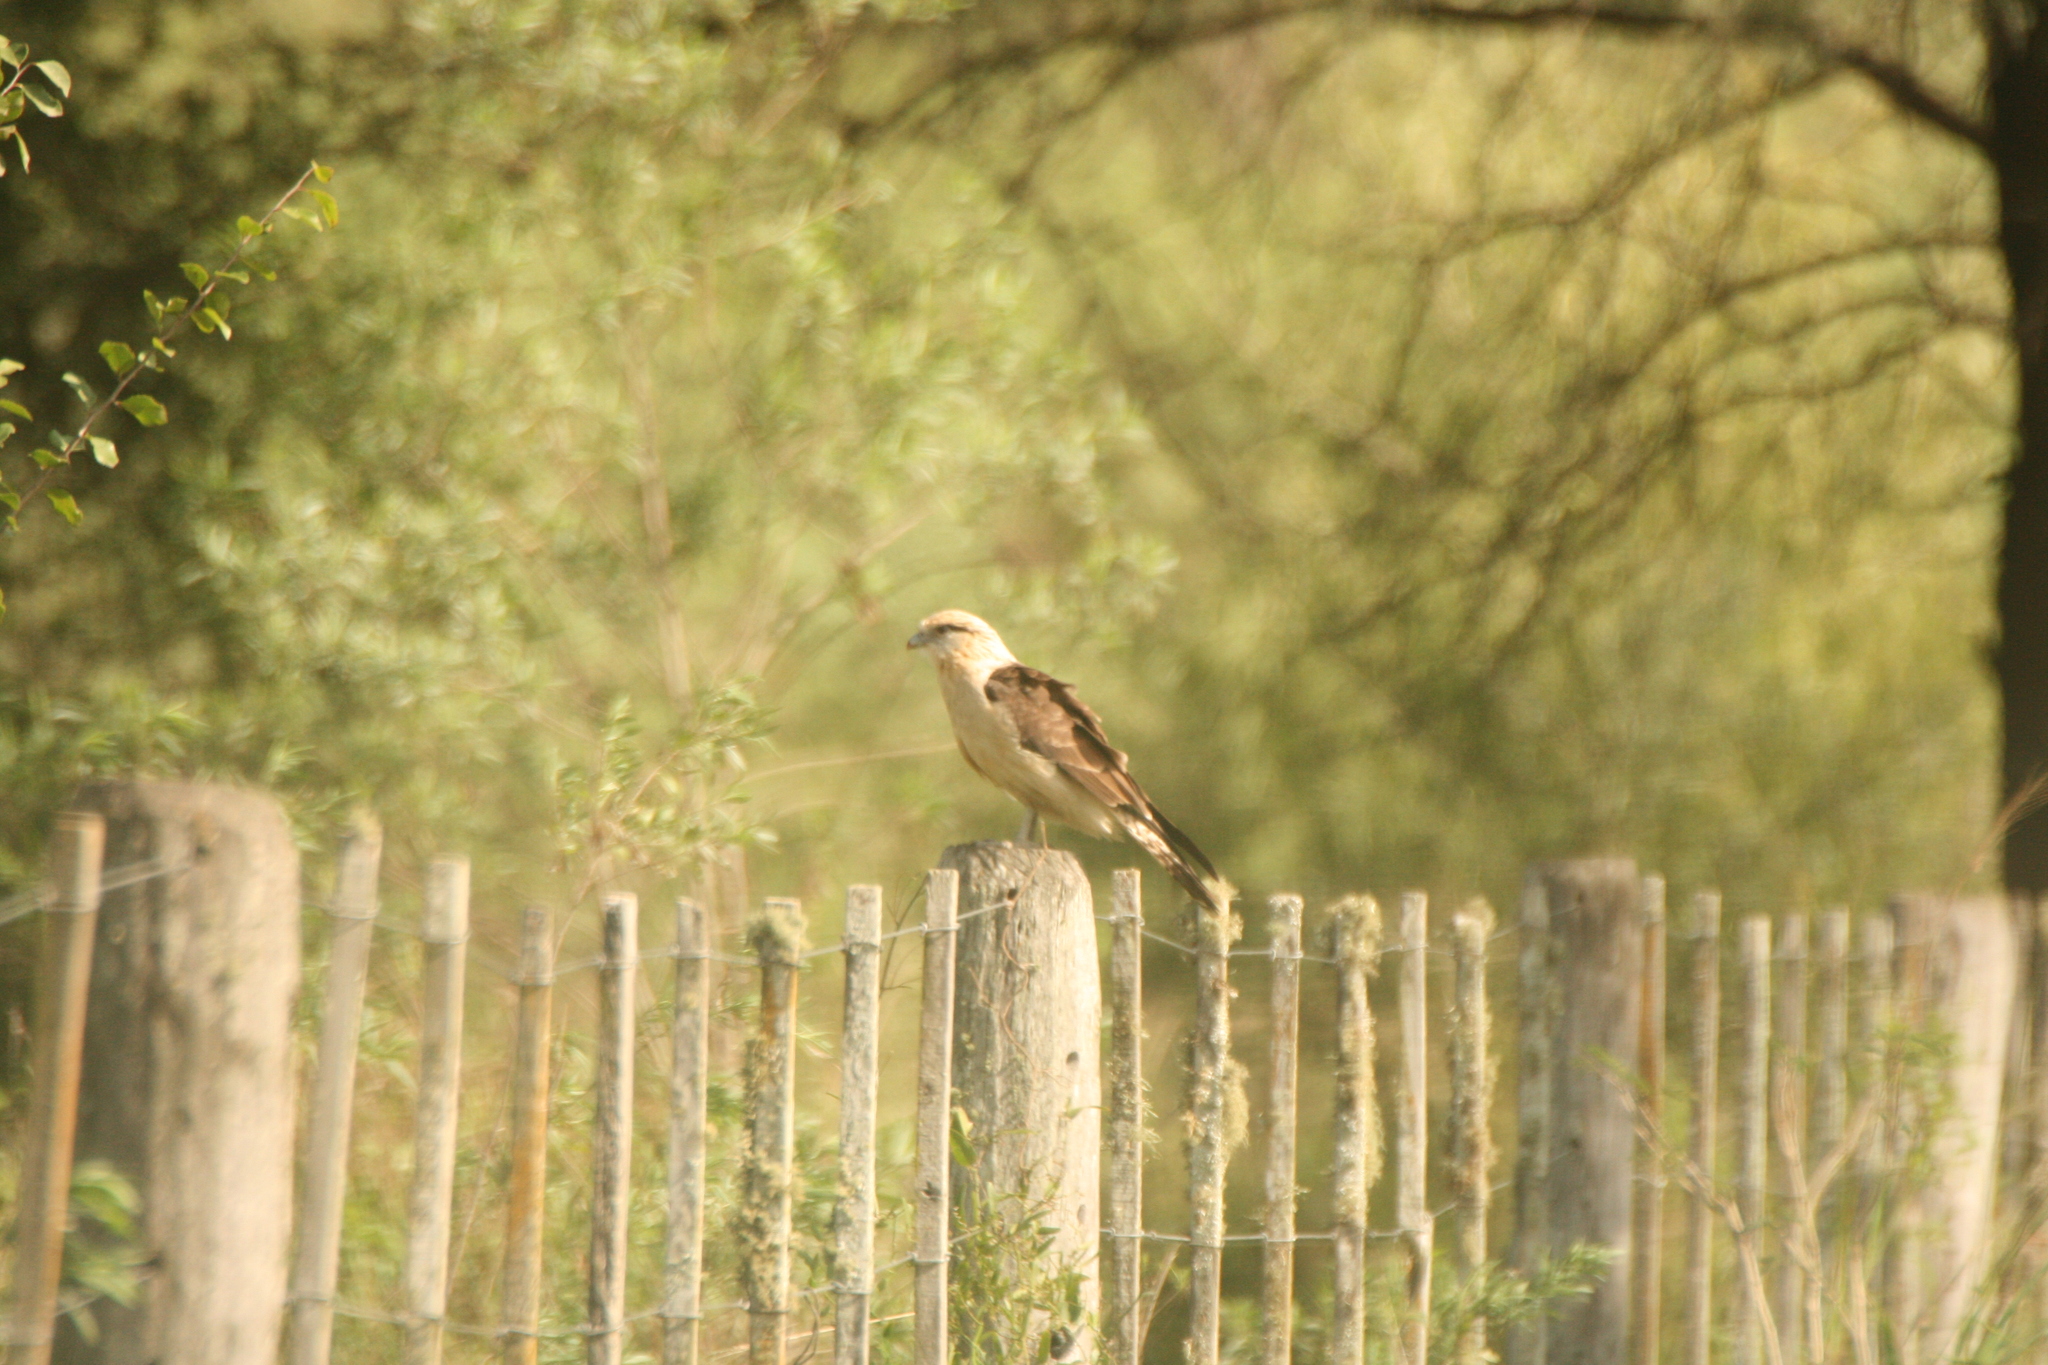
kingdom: Animalia
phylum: Chordata
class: Aves
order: Falconiformes
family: Falconidae
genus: Daptrius
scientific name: Daptrius
